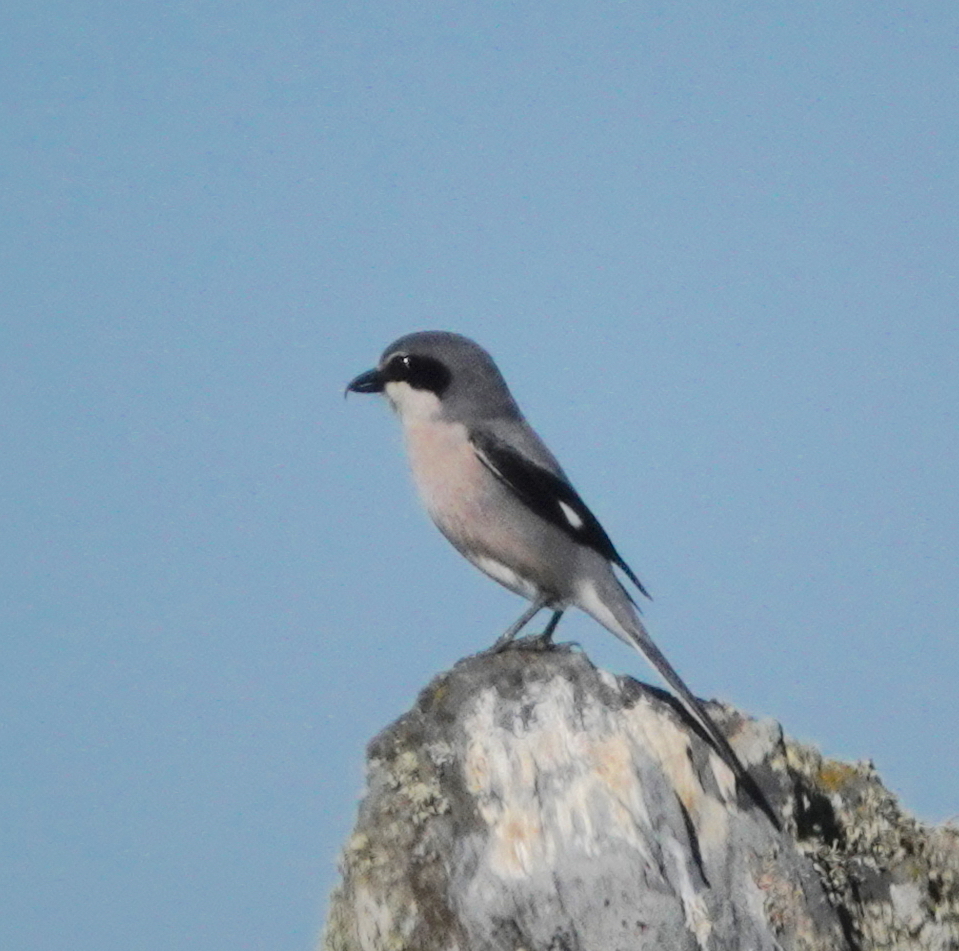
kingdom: Animalia
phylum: Chordata
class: Aves
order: Passeriformes
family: Laniidae
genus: Lanius
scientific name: Lanius meridionalis
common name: Iberian grey shrike
